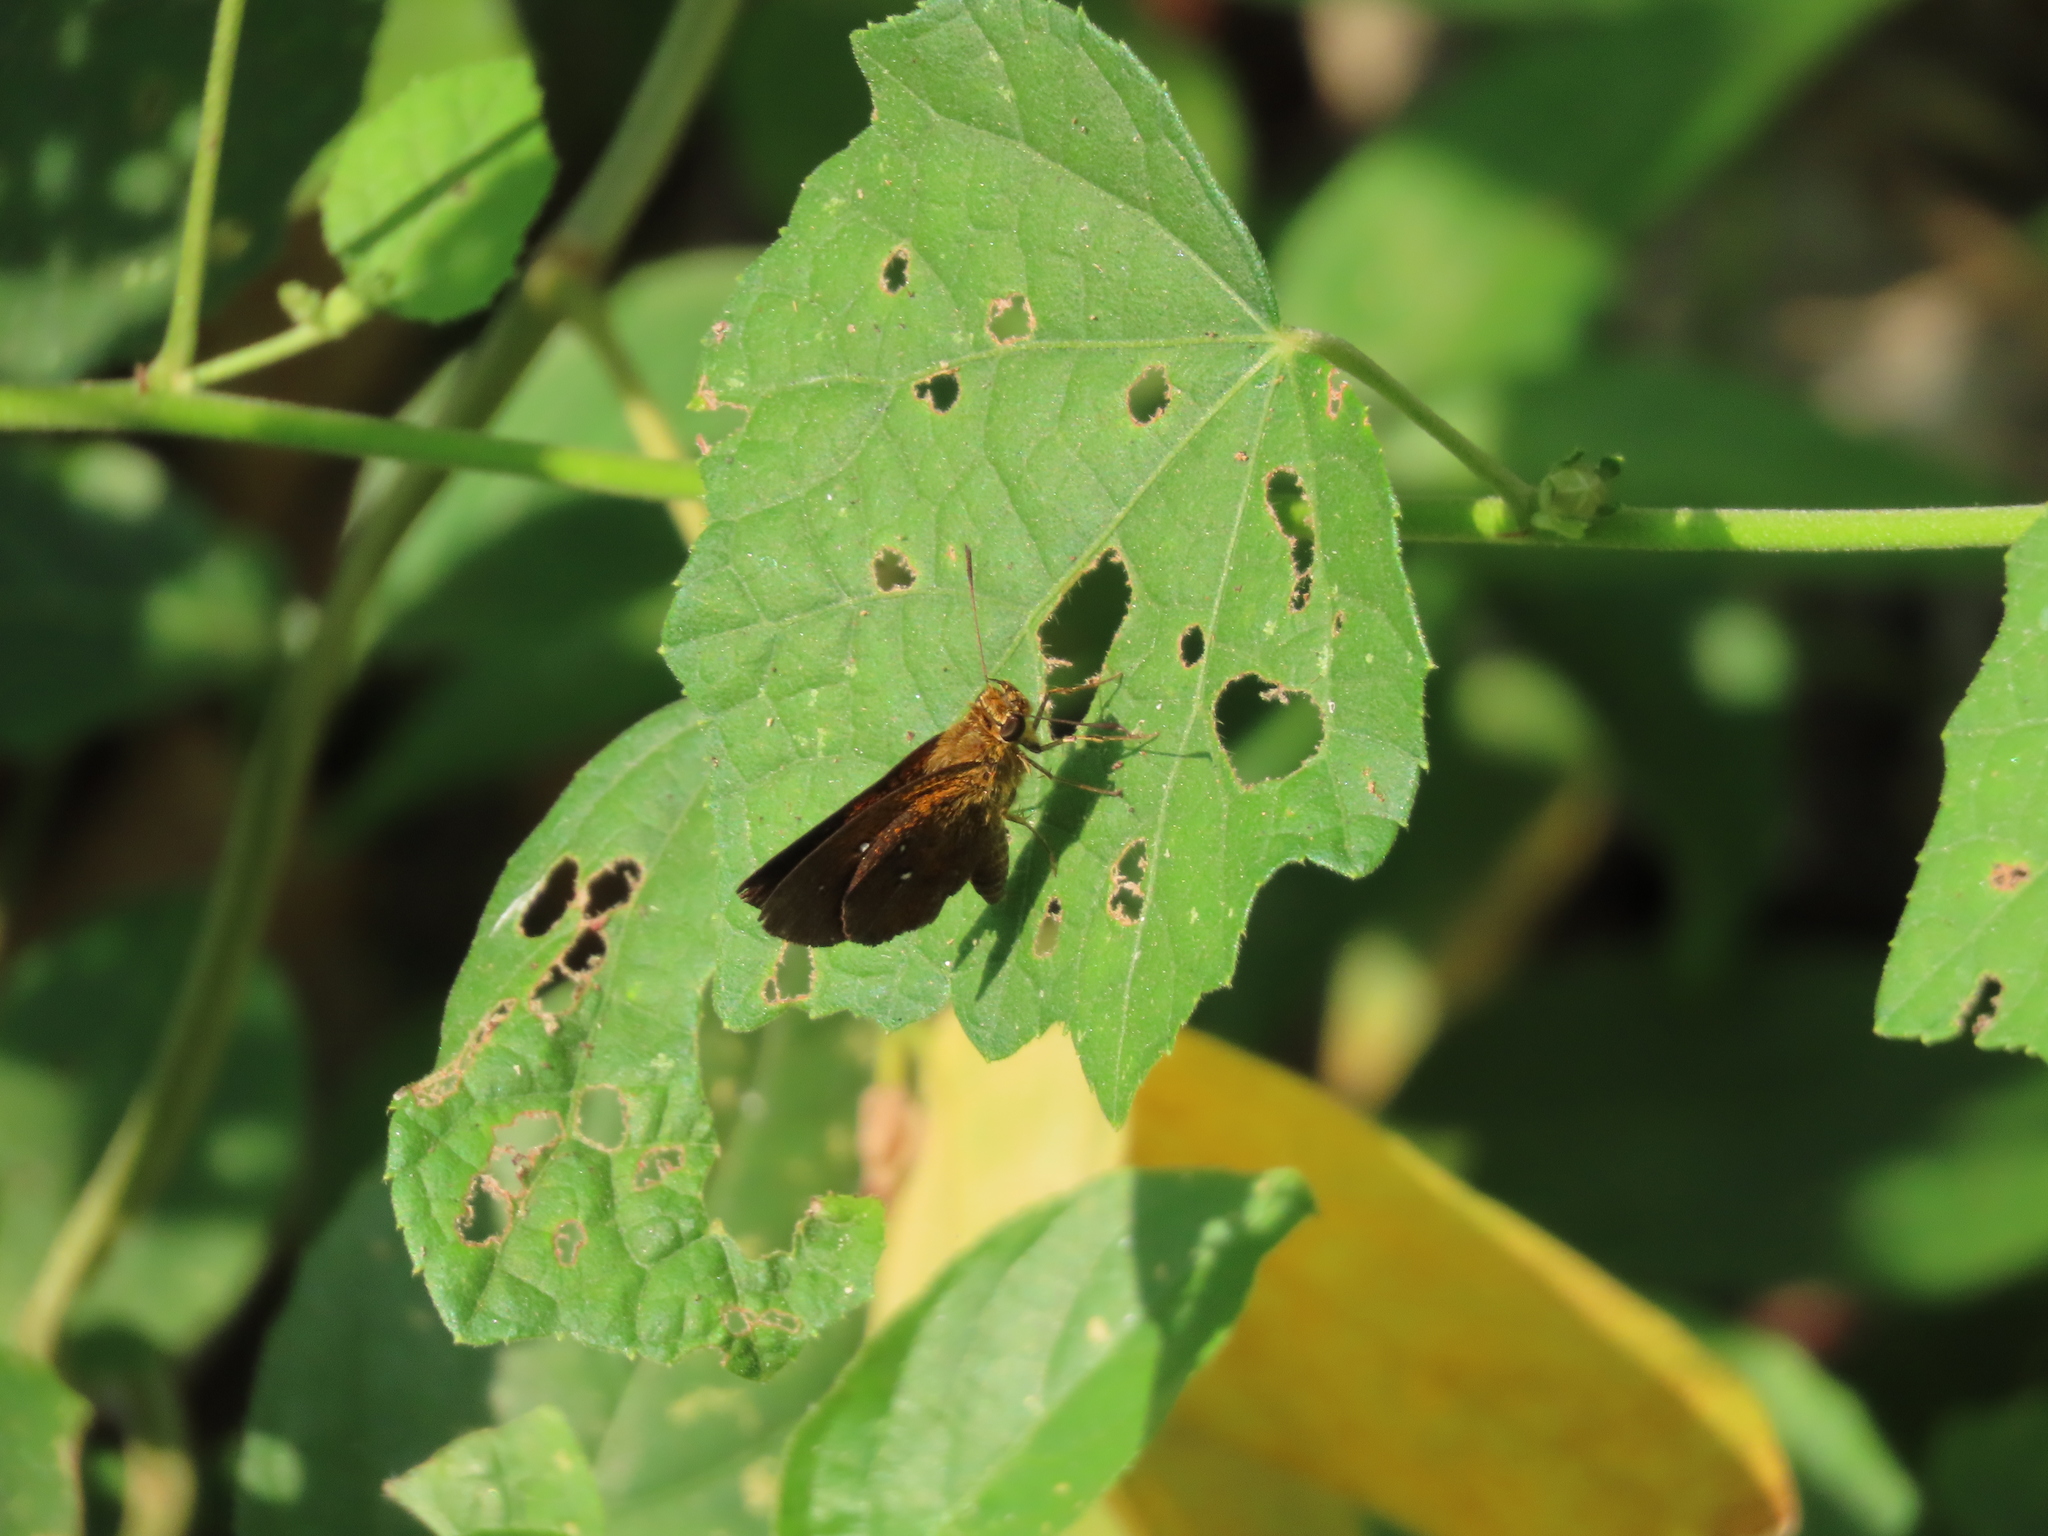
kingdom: Animalia
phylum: Arthropoda
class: Insecta
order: Lepidoptera
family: Hesperiidae
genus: Iambrix
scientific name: Iambrix salsala
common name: Chestnut bob
